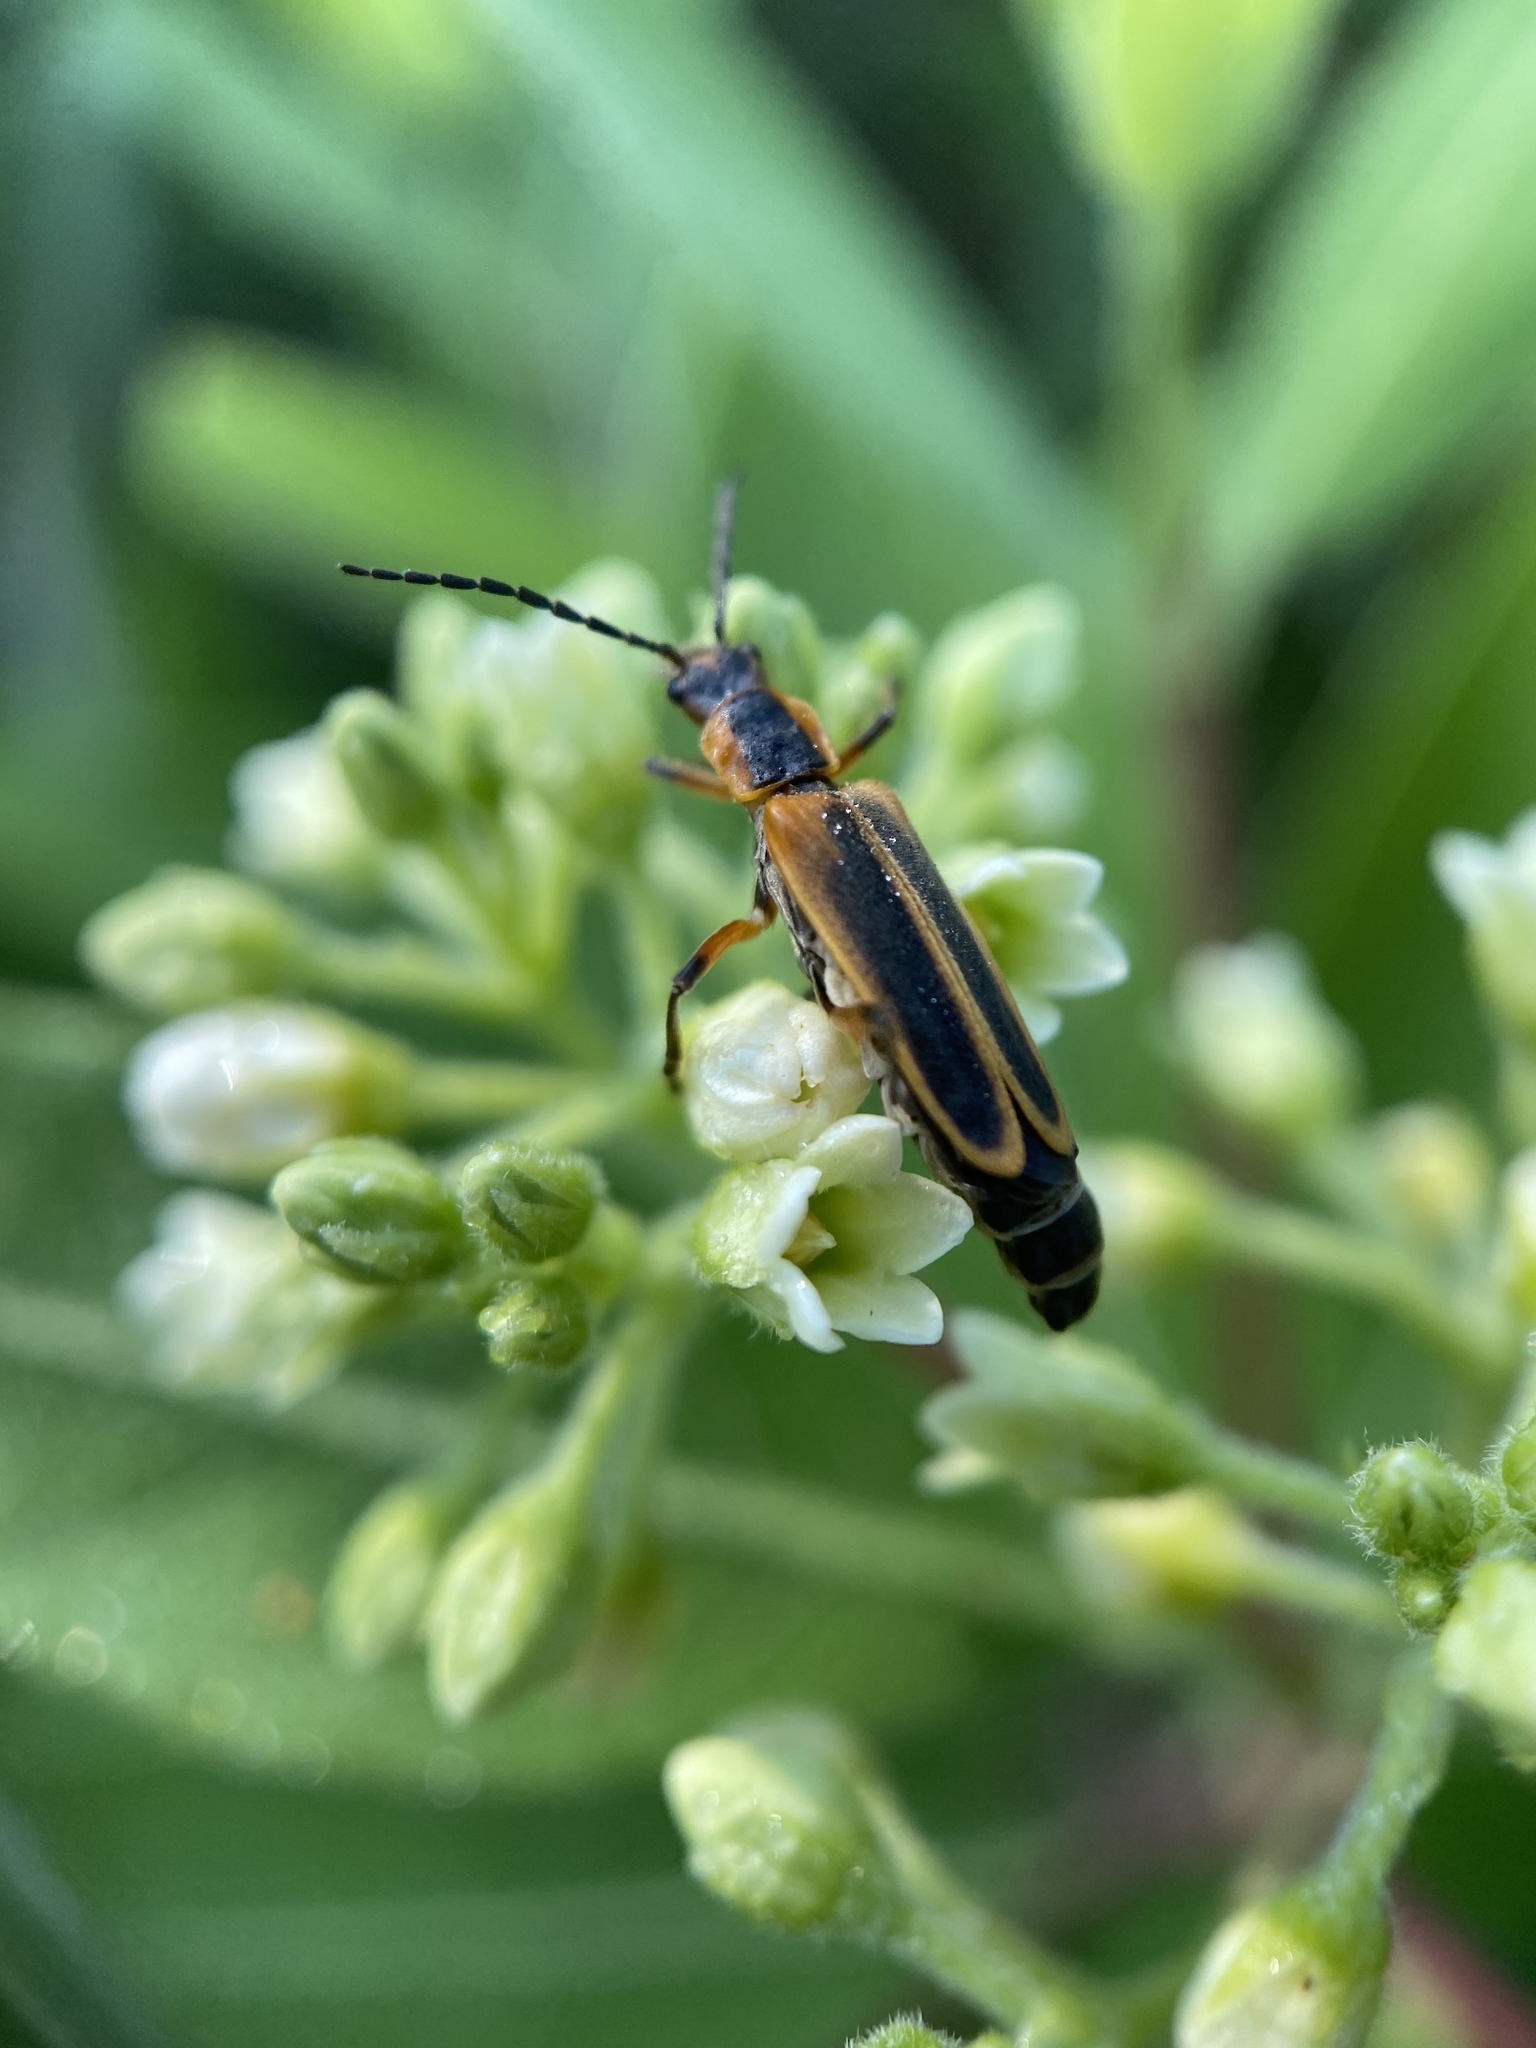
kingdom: Animalia
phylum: Arthropoda
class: Insecta
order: Coleoptera
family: Cantharidae
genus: Chauliognathus
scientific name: Chauliognathus marginatus
